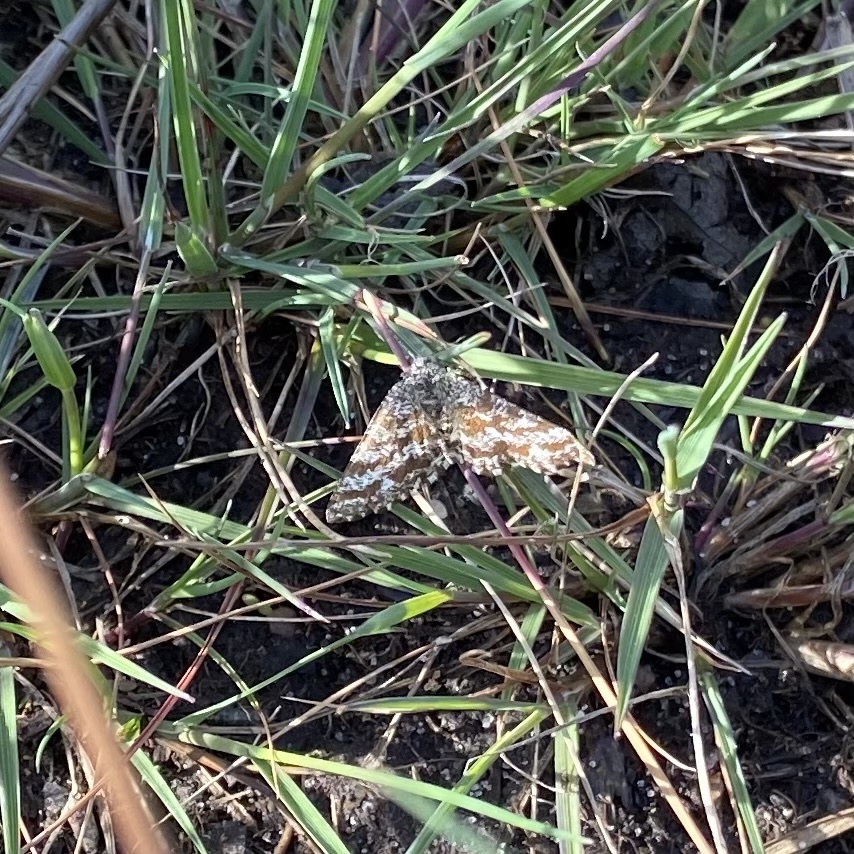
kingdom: Animalia
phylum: Arthropoda
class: Insecta
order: Lepidoptera
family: Geometridae
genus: Ematurga
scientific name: Ematurga atomaria
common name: Common heath
